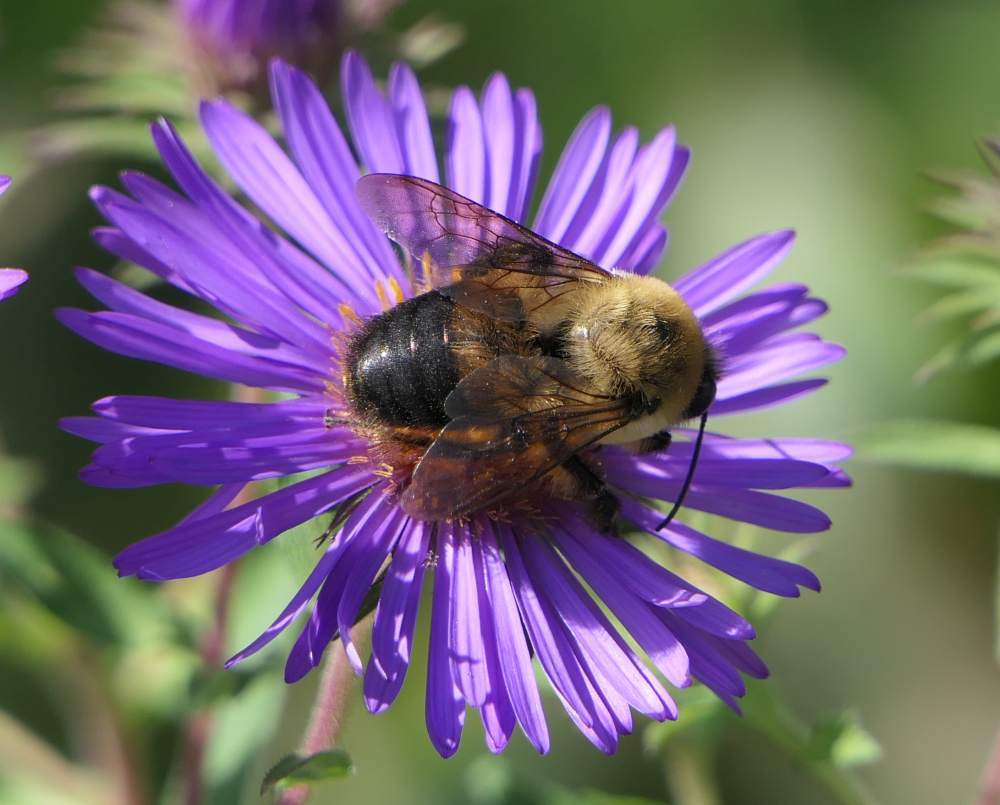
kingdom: Animalia
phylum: Arthropoda
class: Insecta
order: Hymenoptera
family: Apidae
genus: Bombus
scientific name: Bombus griseocollis
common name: Brown-belted bumble bee
